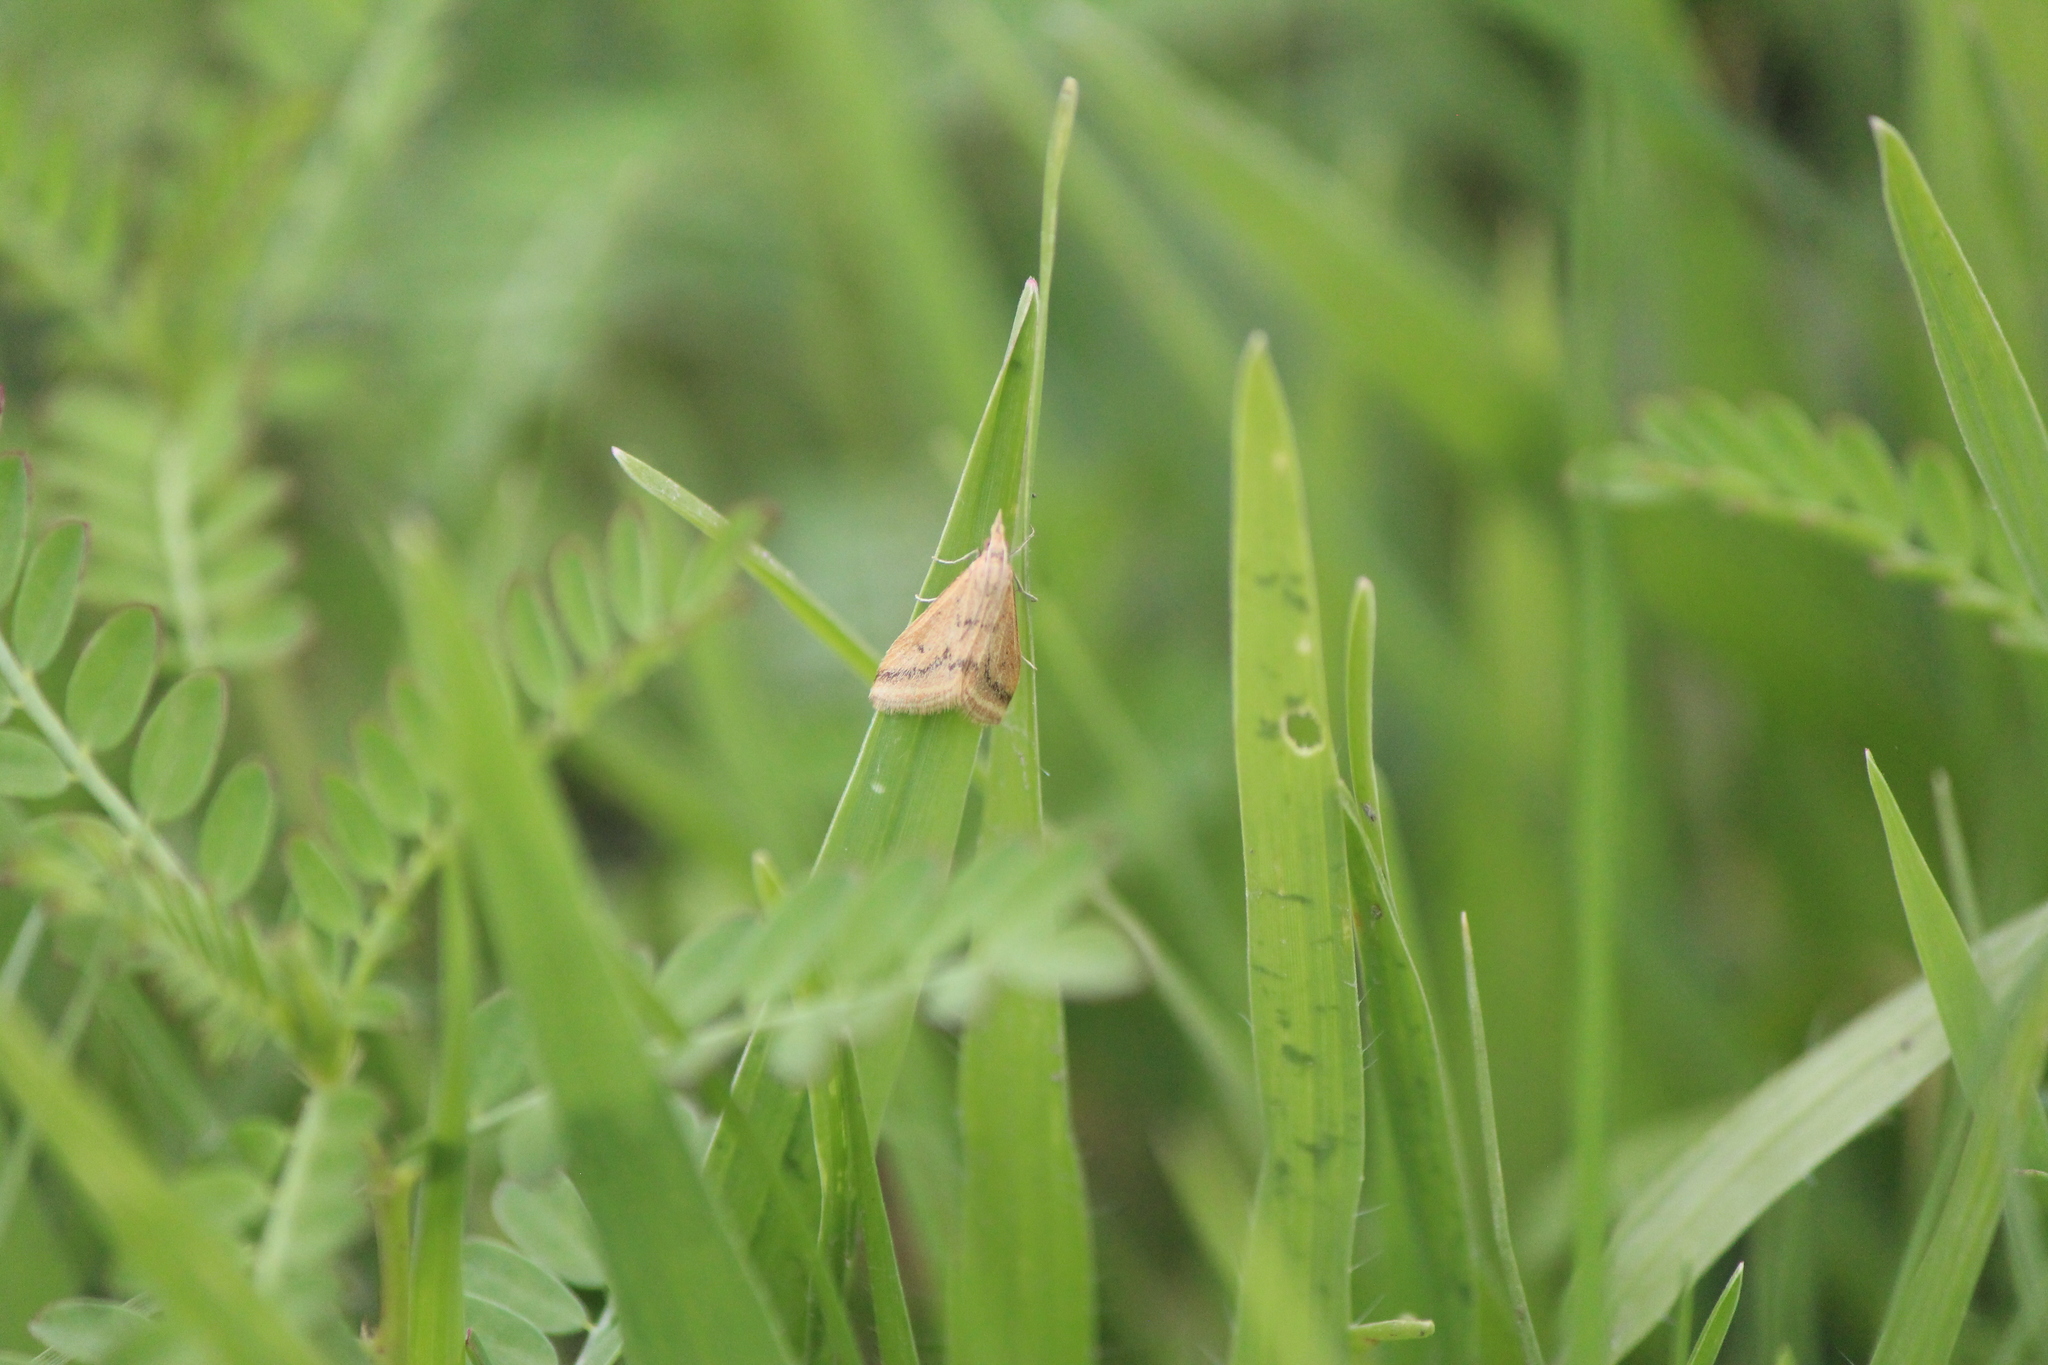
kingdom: Animalia
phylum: Arthropoda
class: Insecta
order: Lepidoptera
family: Crambidae
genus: Microtheoris
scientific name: Microtheoris ophionalis
